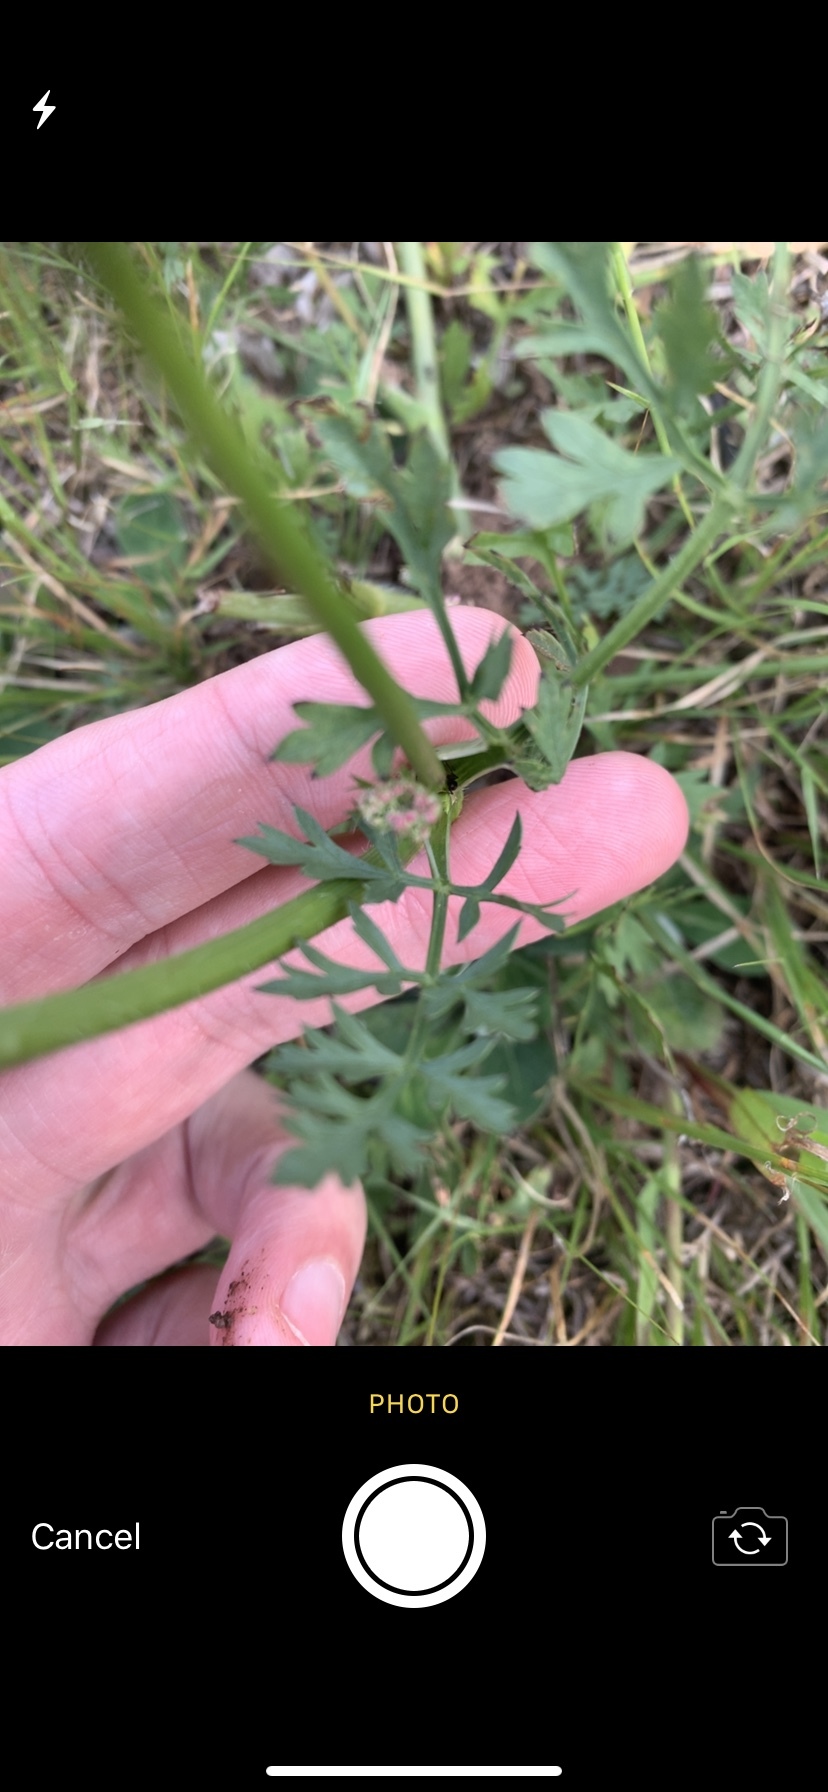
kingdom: Plantae
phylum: Tracheophyta
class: Magnoliopsida
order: Apiales
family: Apiaceae
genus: Daucus
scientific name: Daucus carota
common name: Wild carrot
